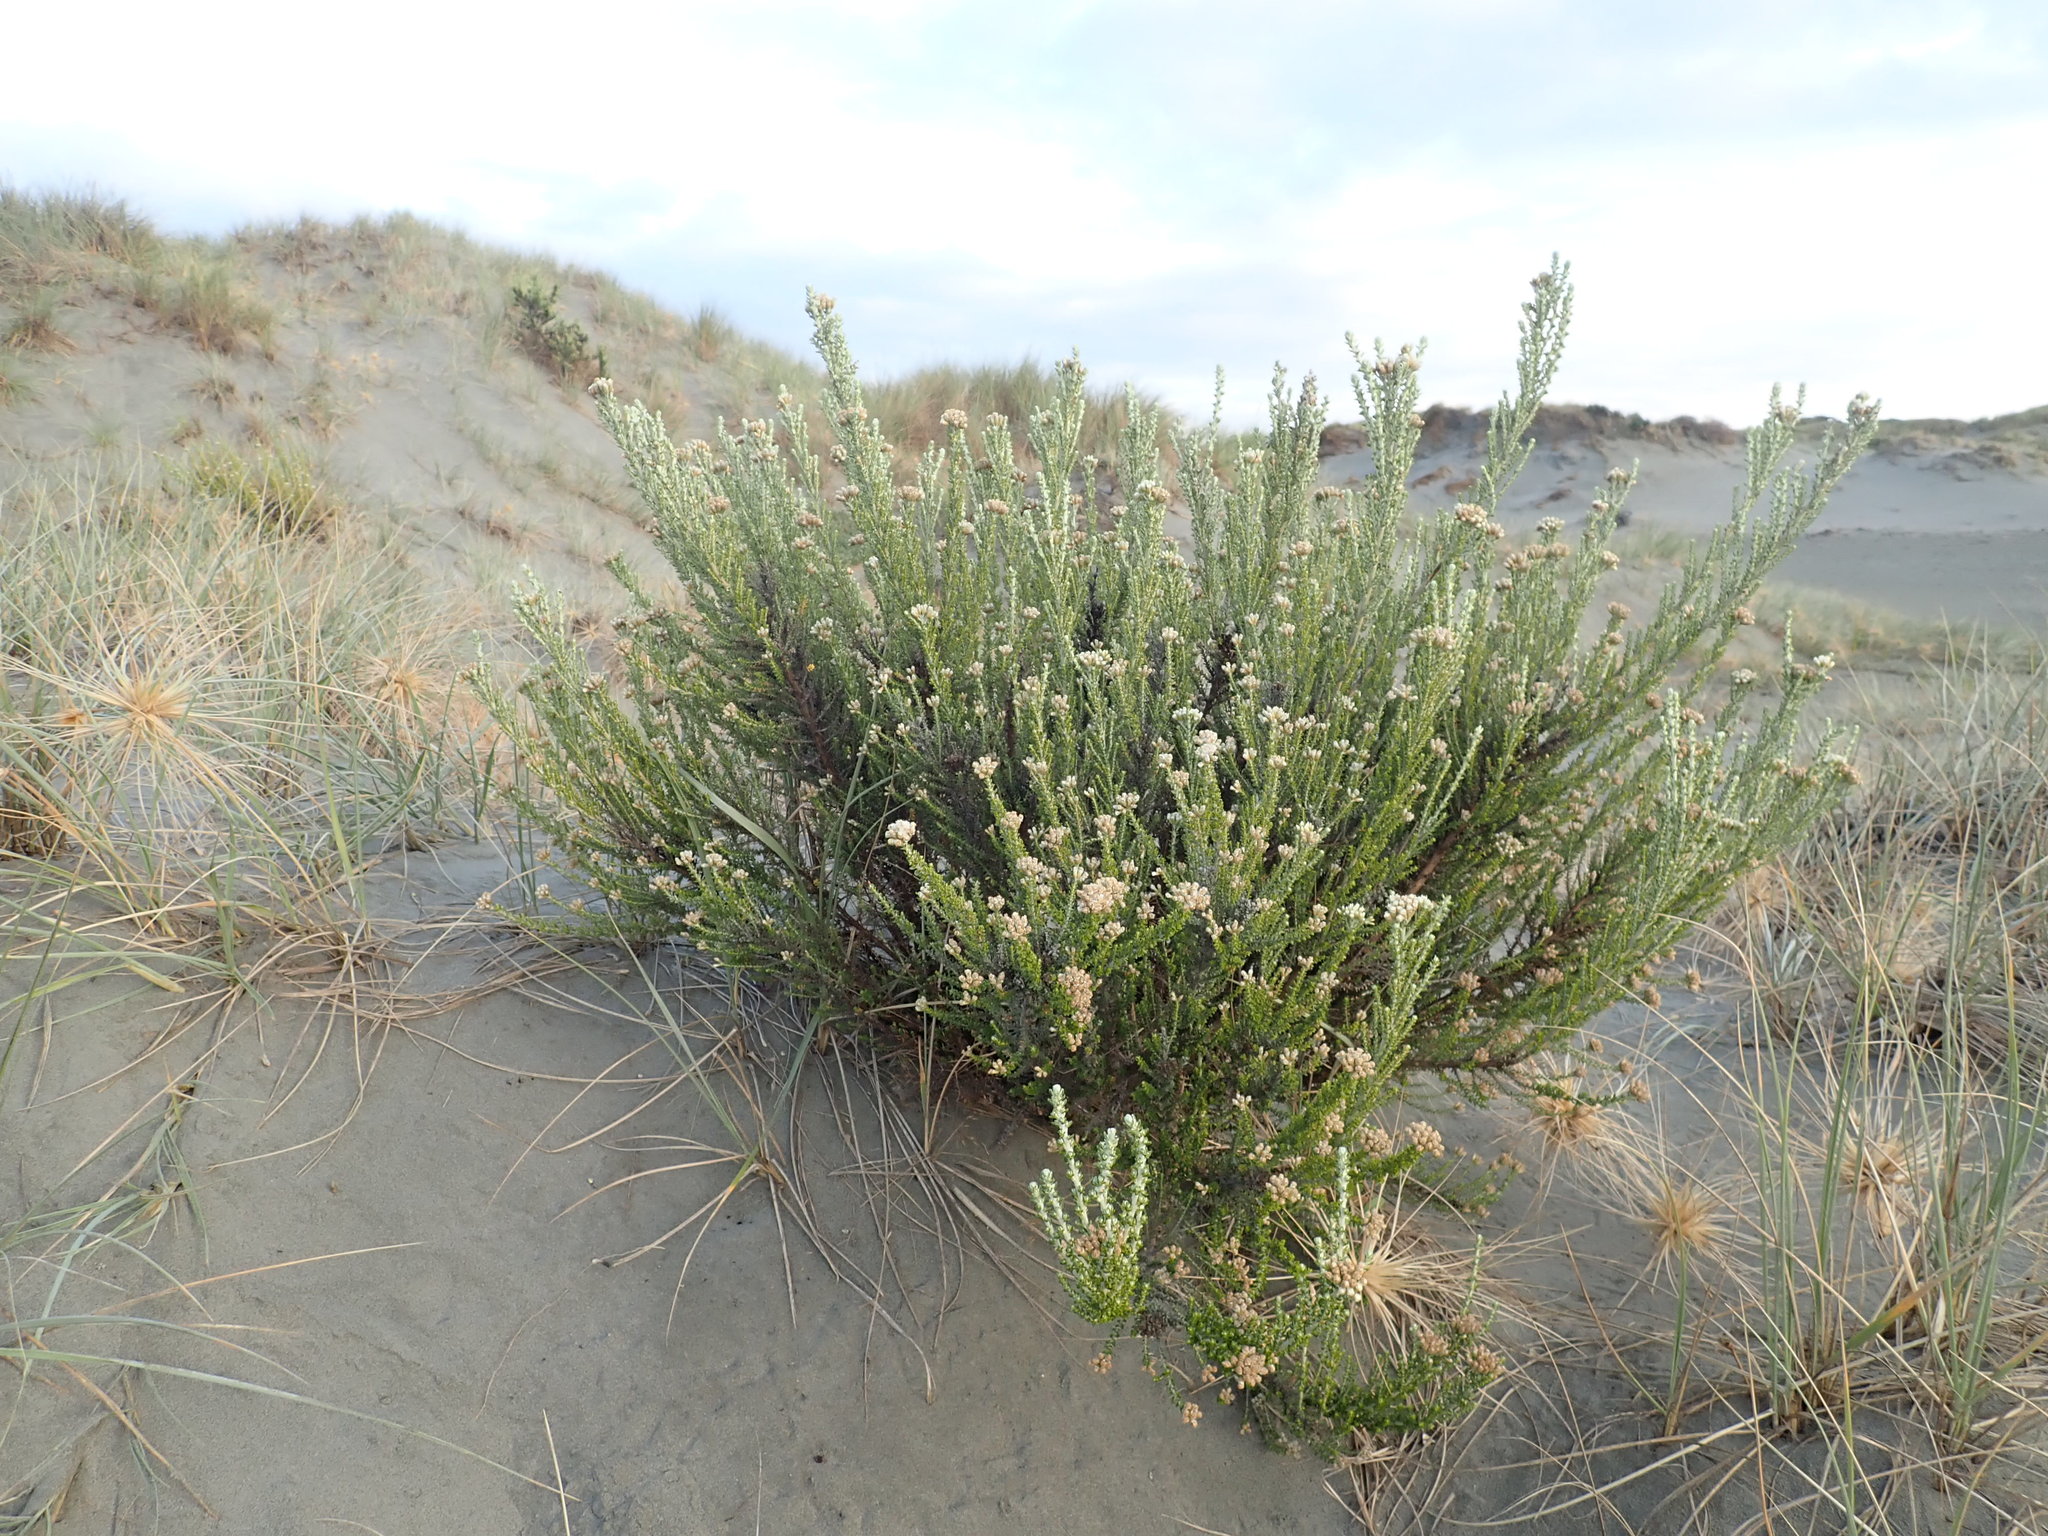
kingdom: Plantae
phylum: Tracheophyta
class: Magnoliopsida
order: Asterales
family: Asteraceae
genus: Ozothamnus
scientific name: Ozothamnus leptophyllus
